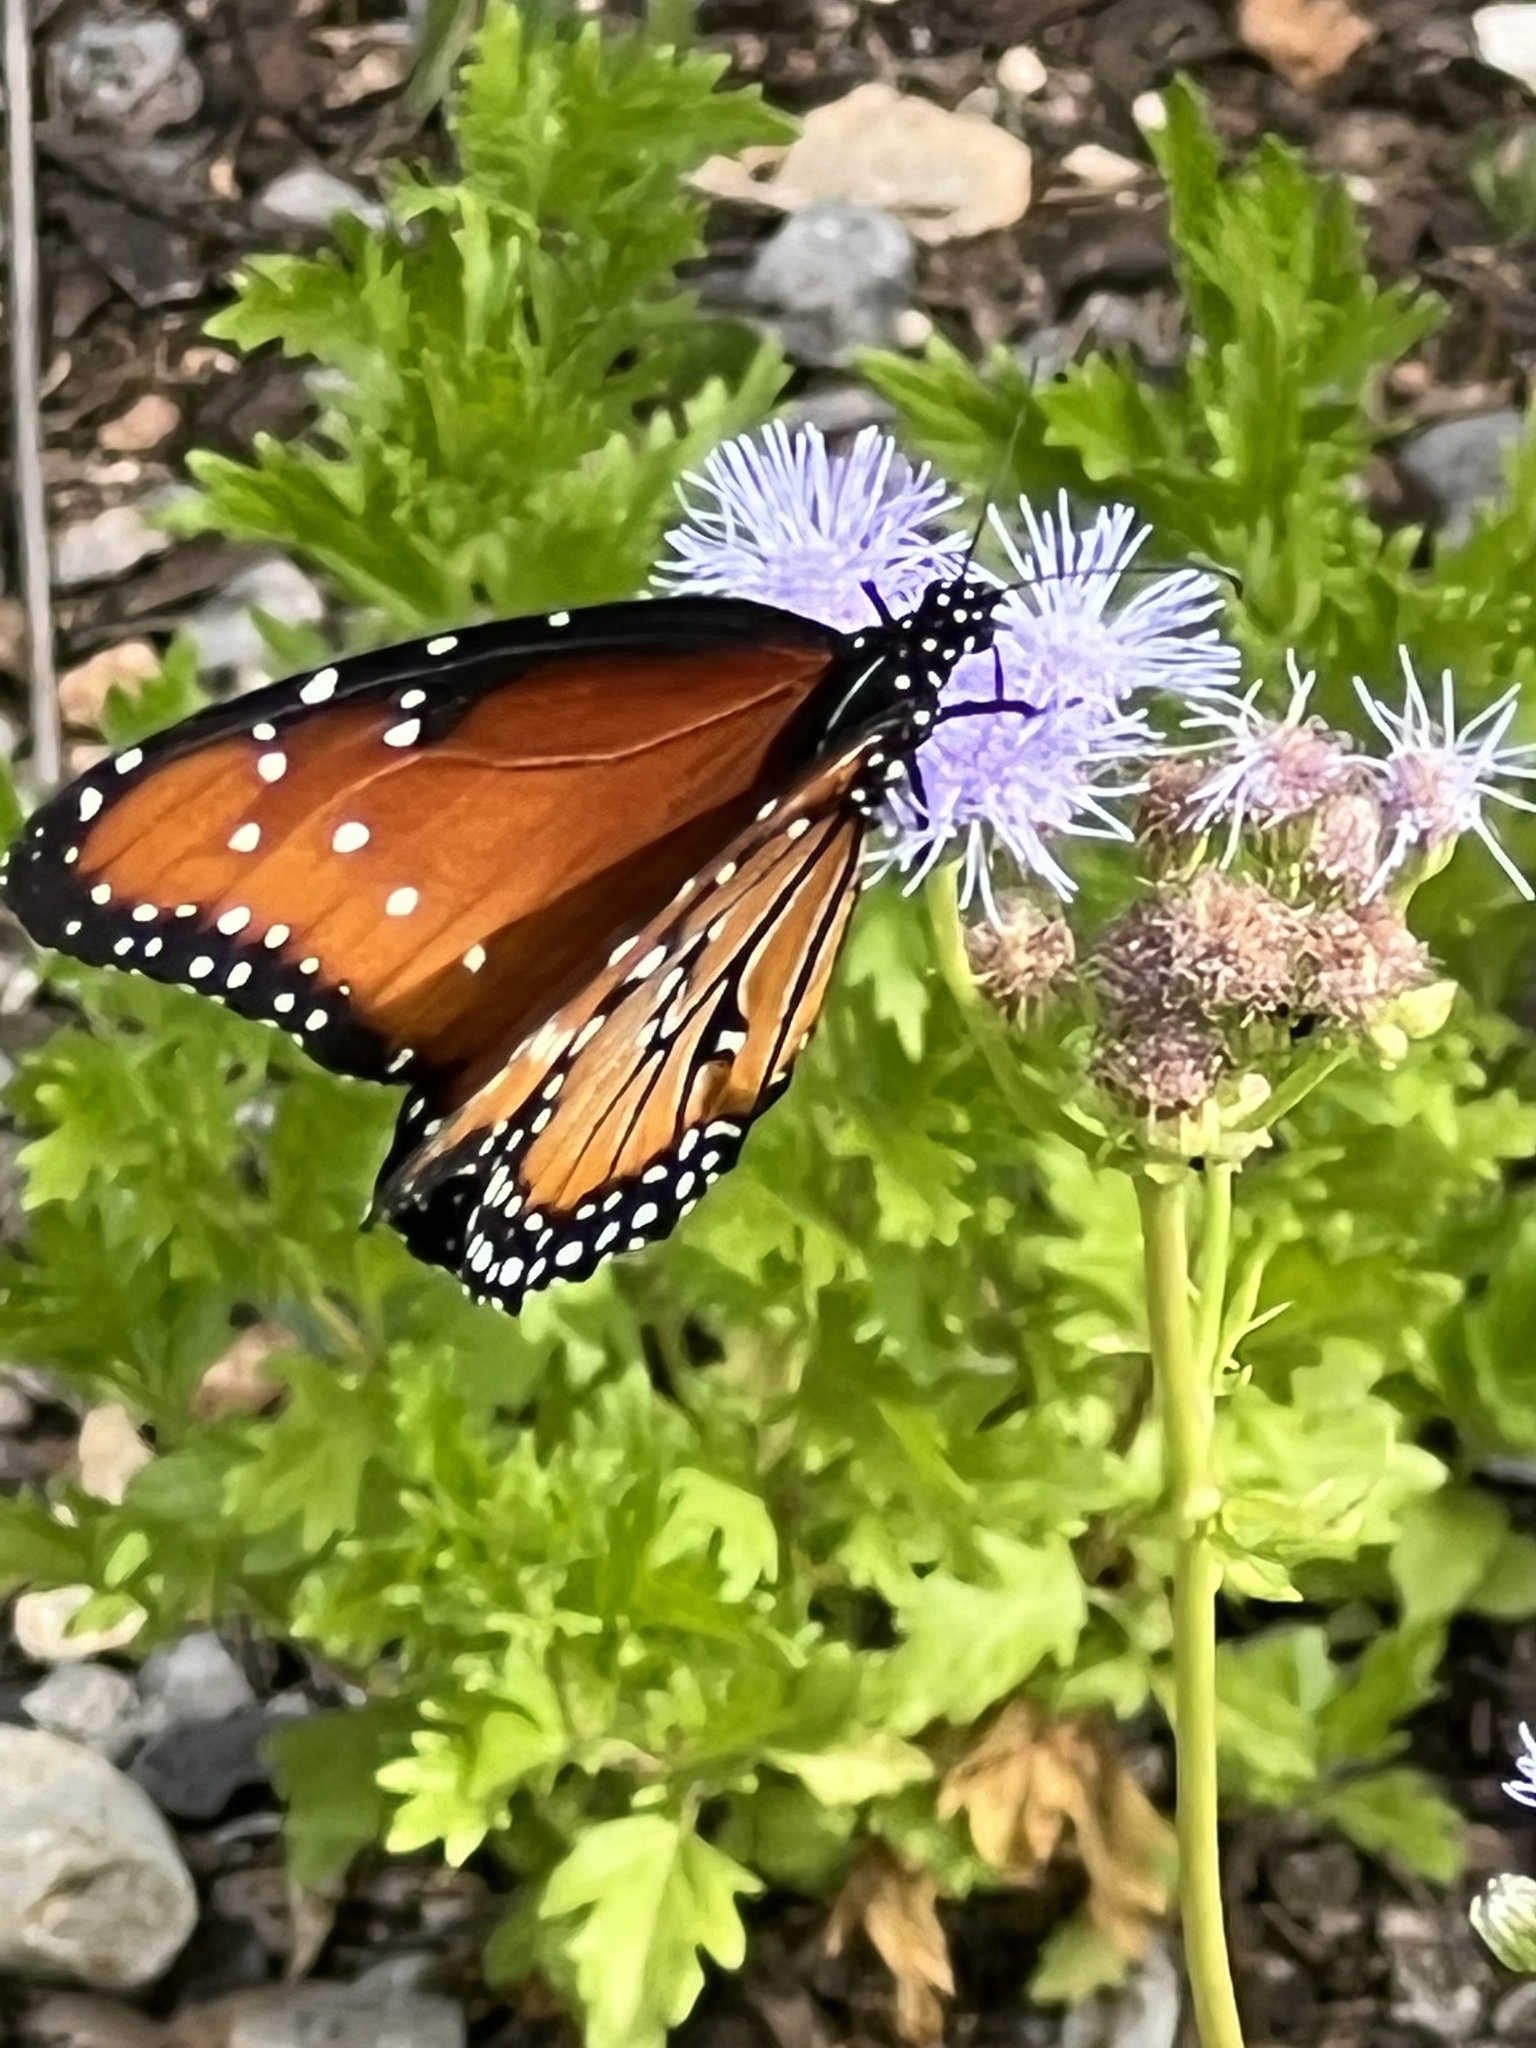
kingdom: Animalia
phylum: Arthropoda
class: Insecta
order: Lepidoptera
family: Nymphalidae
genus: Danaus
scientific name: Danaus gilippus
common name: Queen
